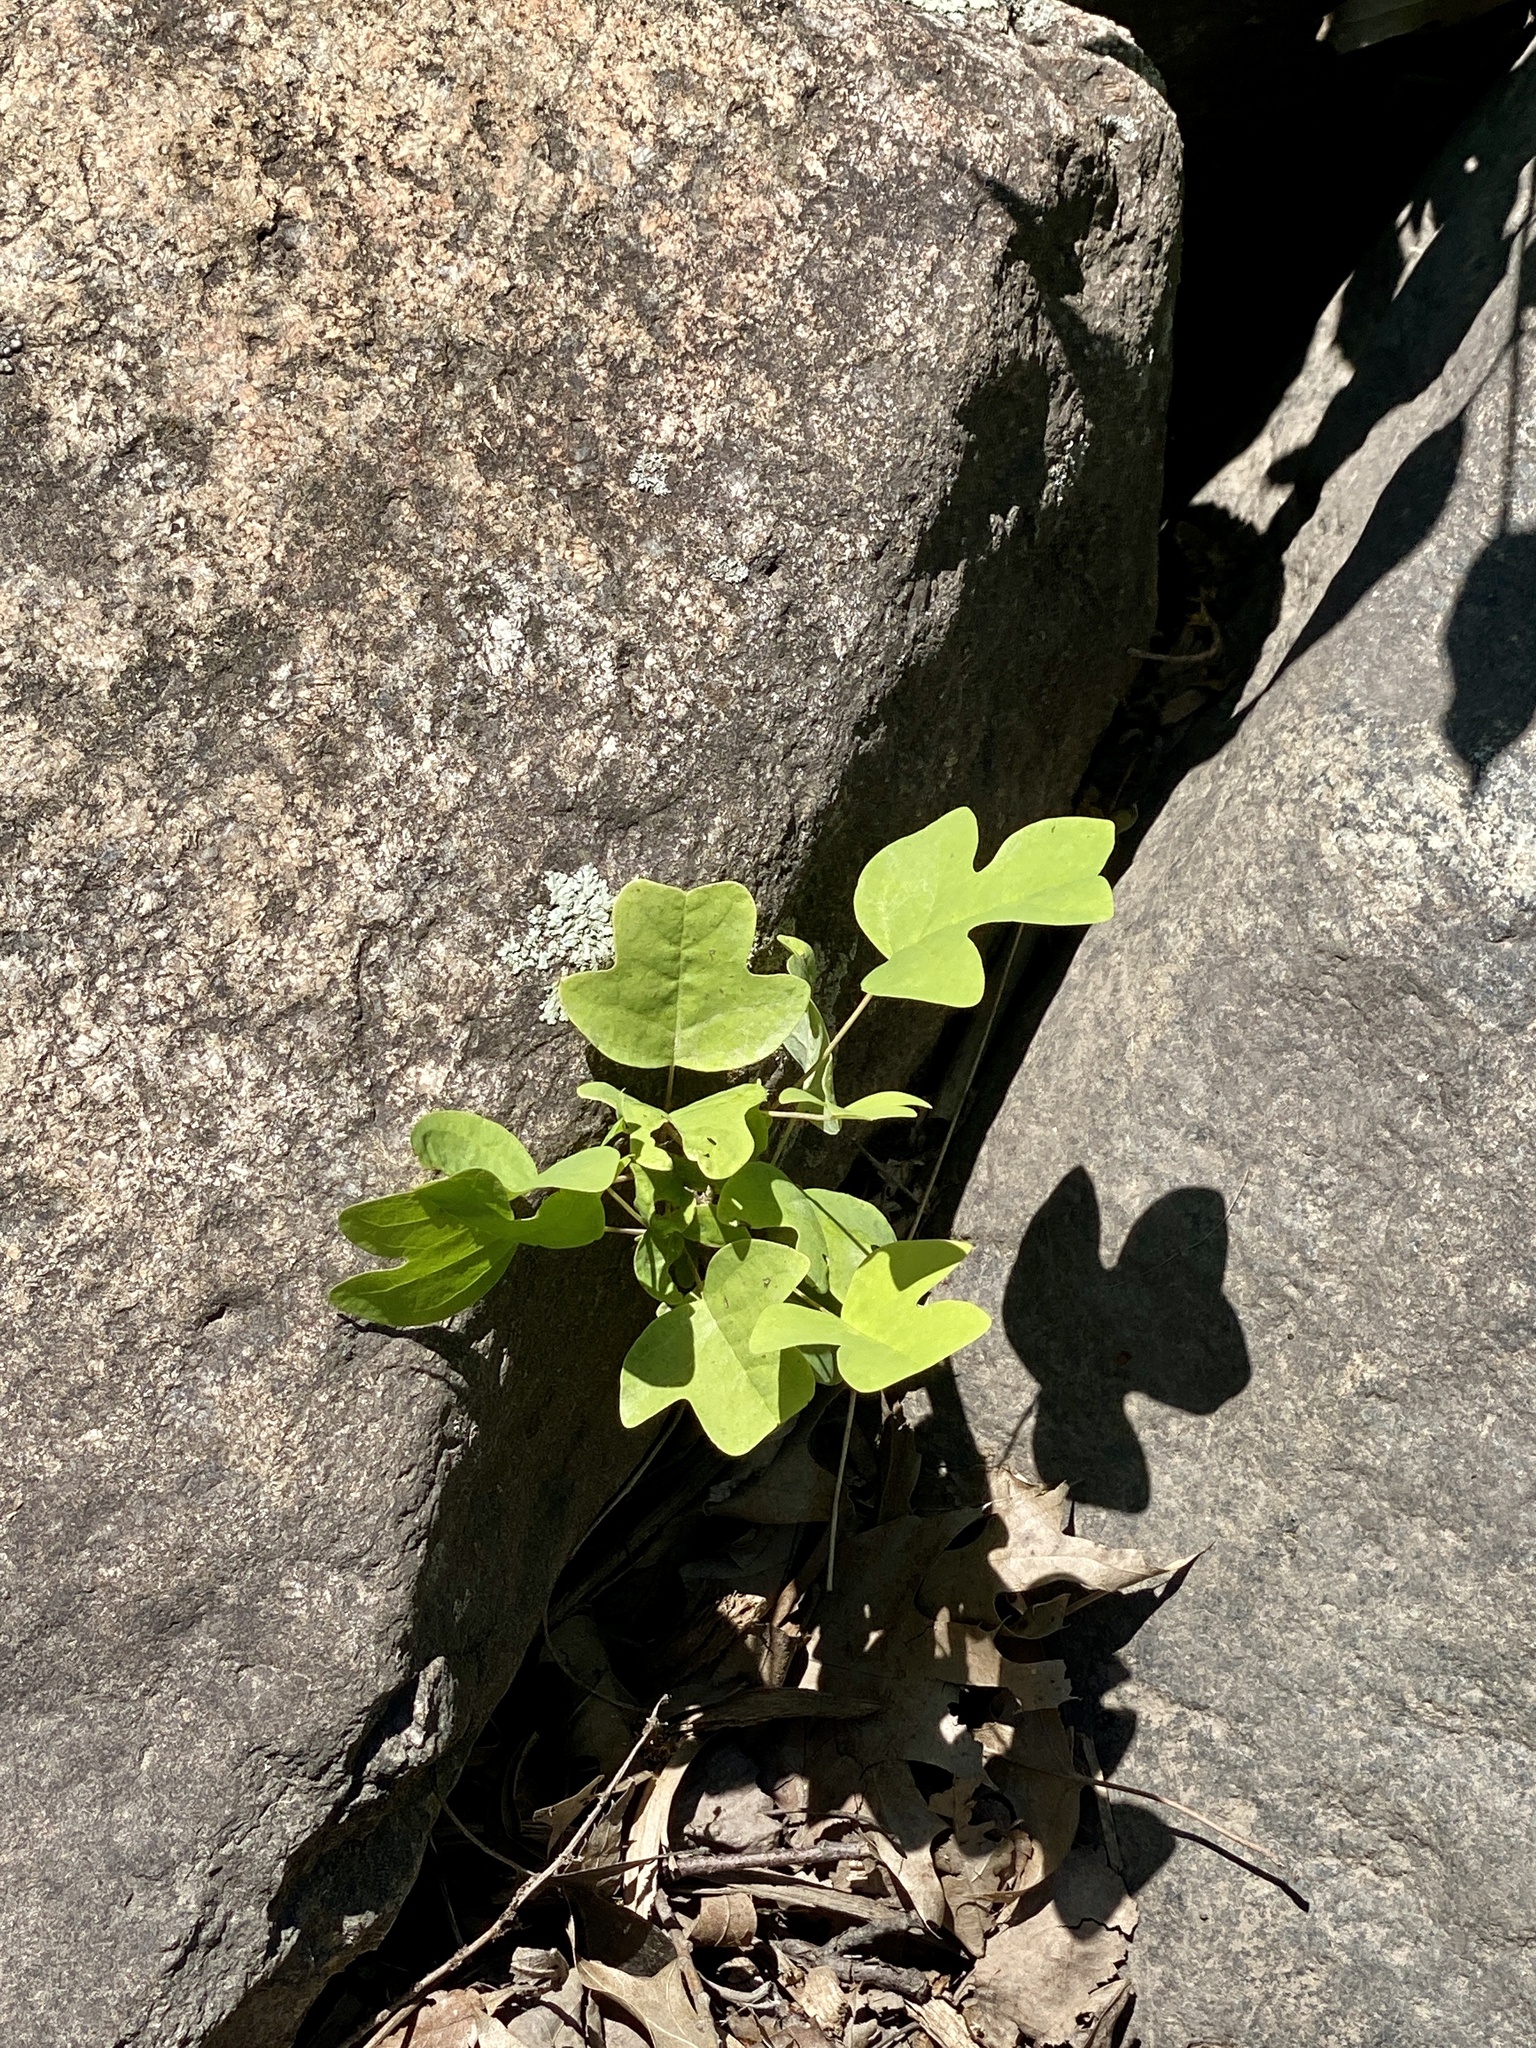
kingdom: Plantae
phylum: Tracheophyta
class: Magnoliopsida
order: Magnoliales
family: Magnoliaceae
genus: Liriodendron
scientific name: Liriodendron tulipifera
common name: Tulip tree
